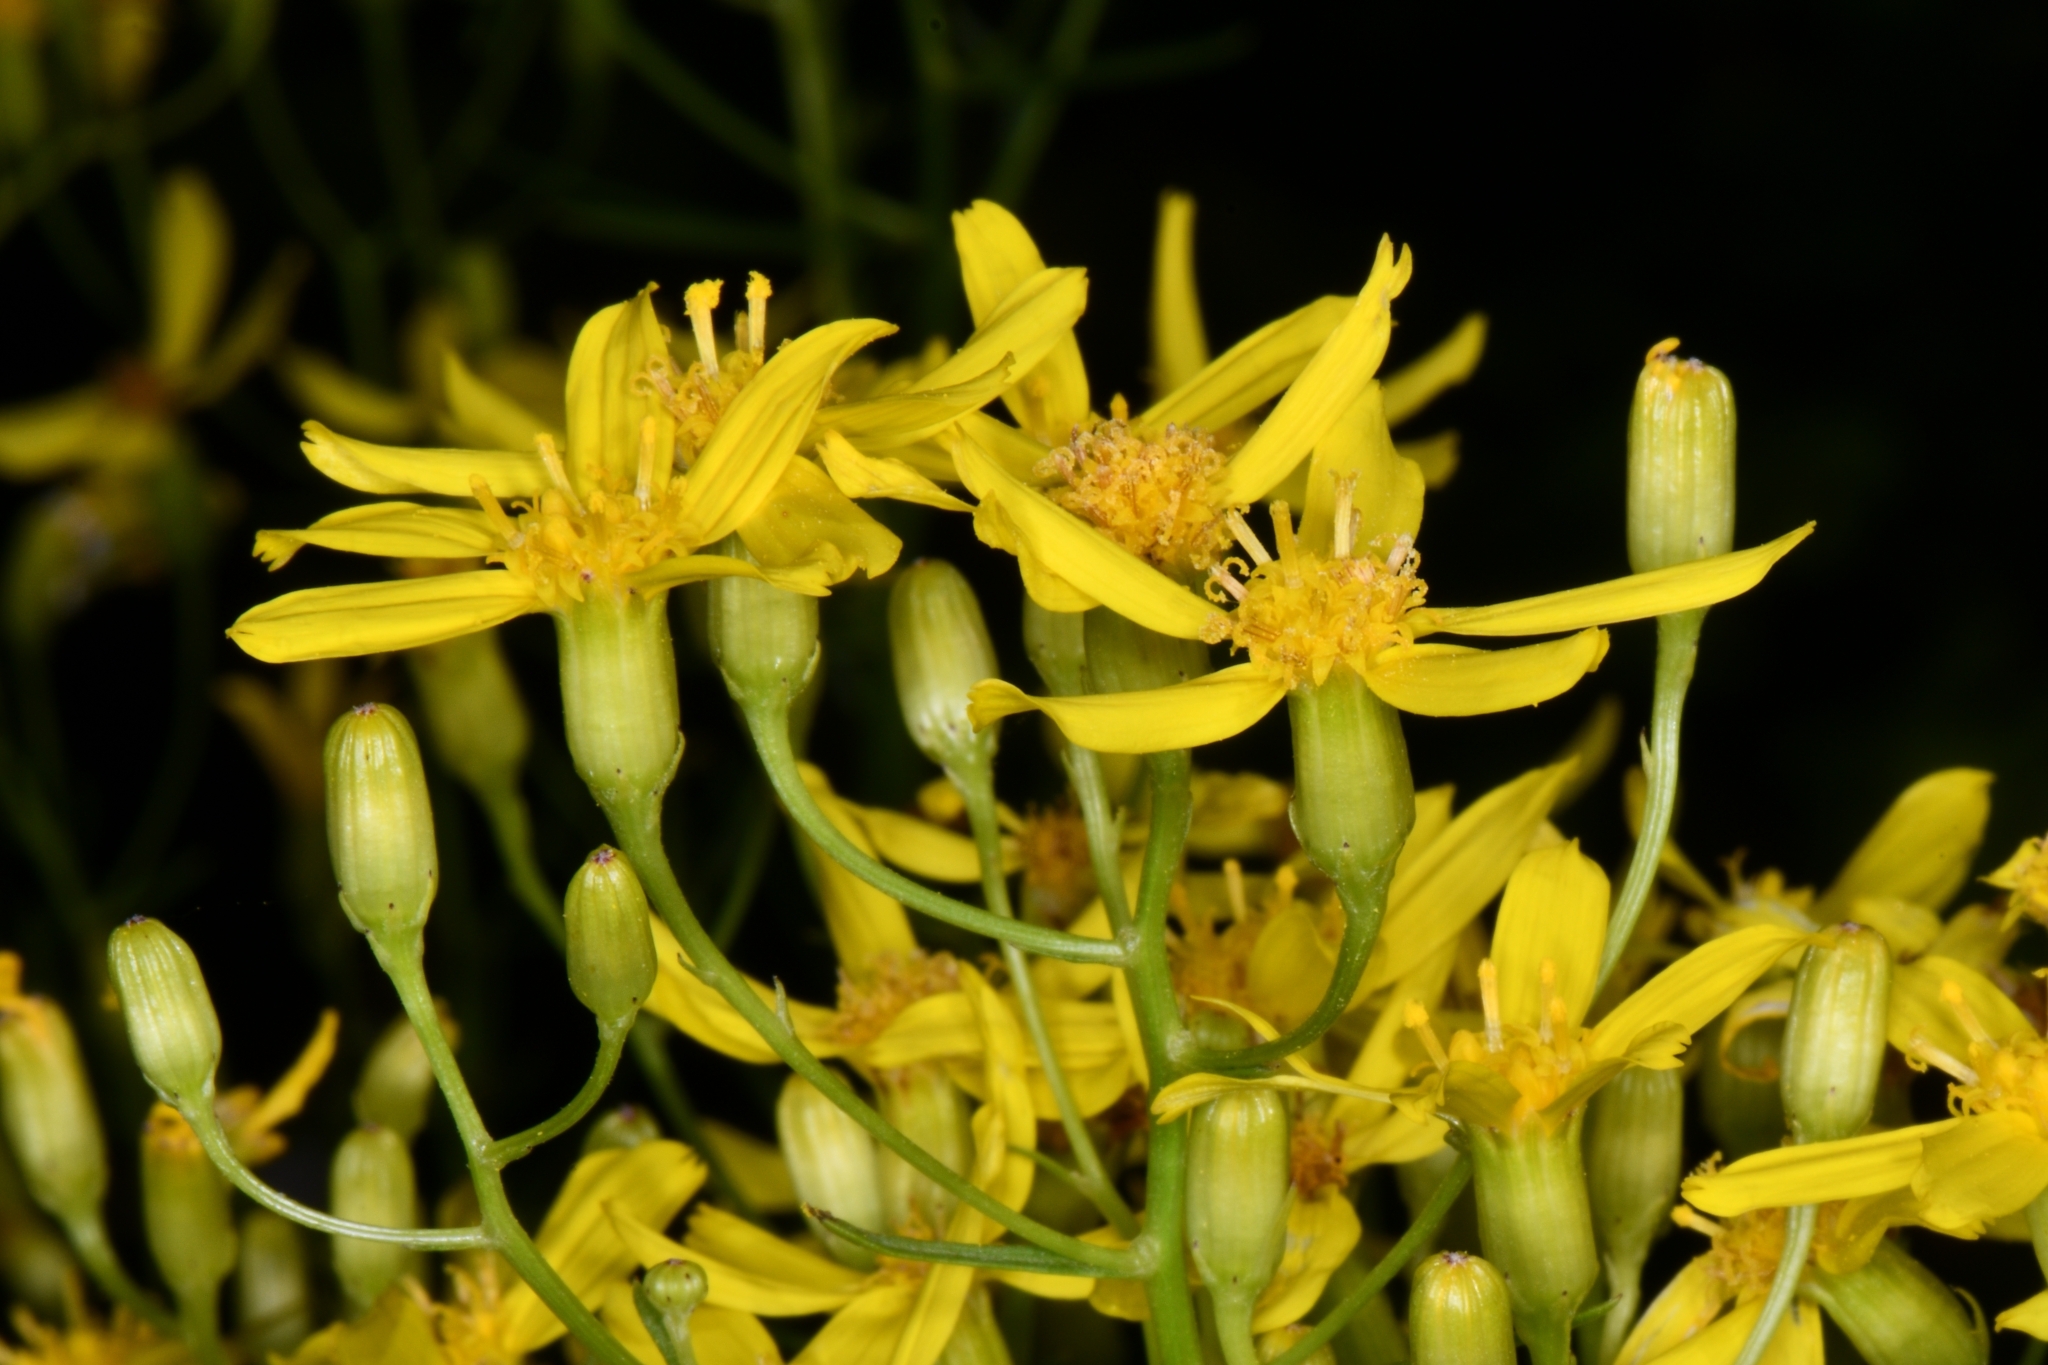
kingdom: Plantae
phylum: Tracheophyta
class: Magnoliopsida
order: Asterales
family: Asteraceae
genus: Senecio
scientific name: Senecio spartioides
